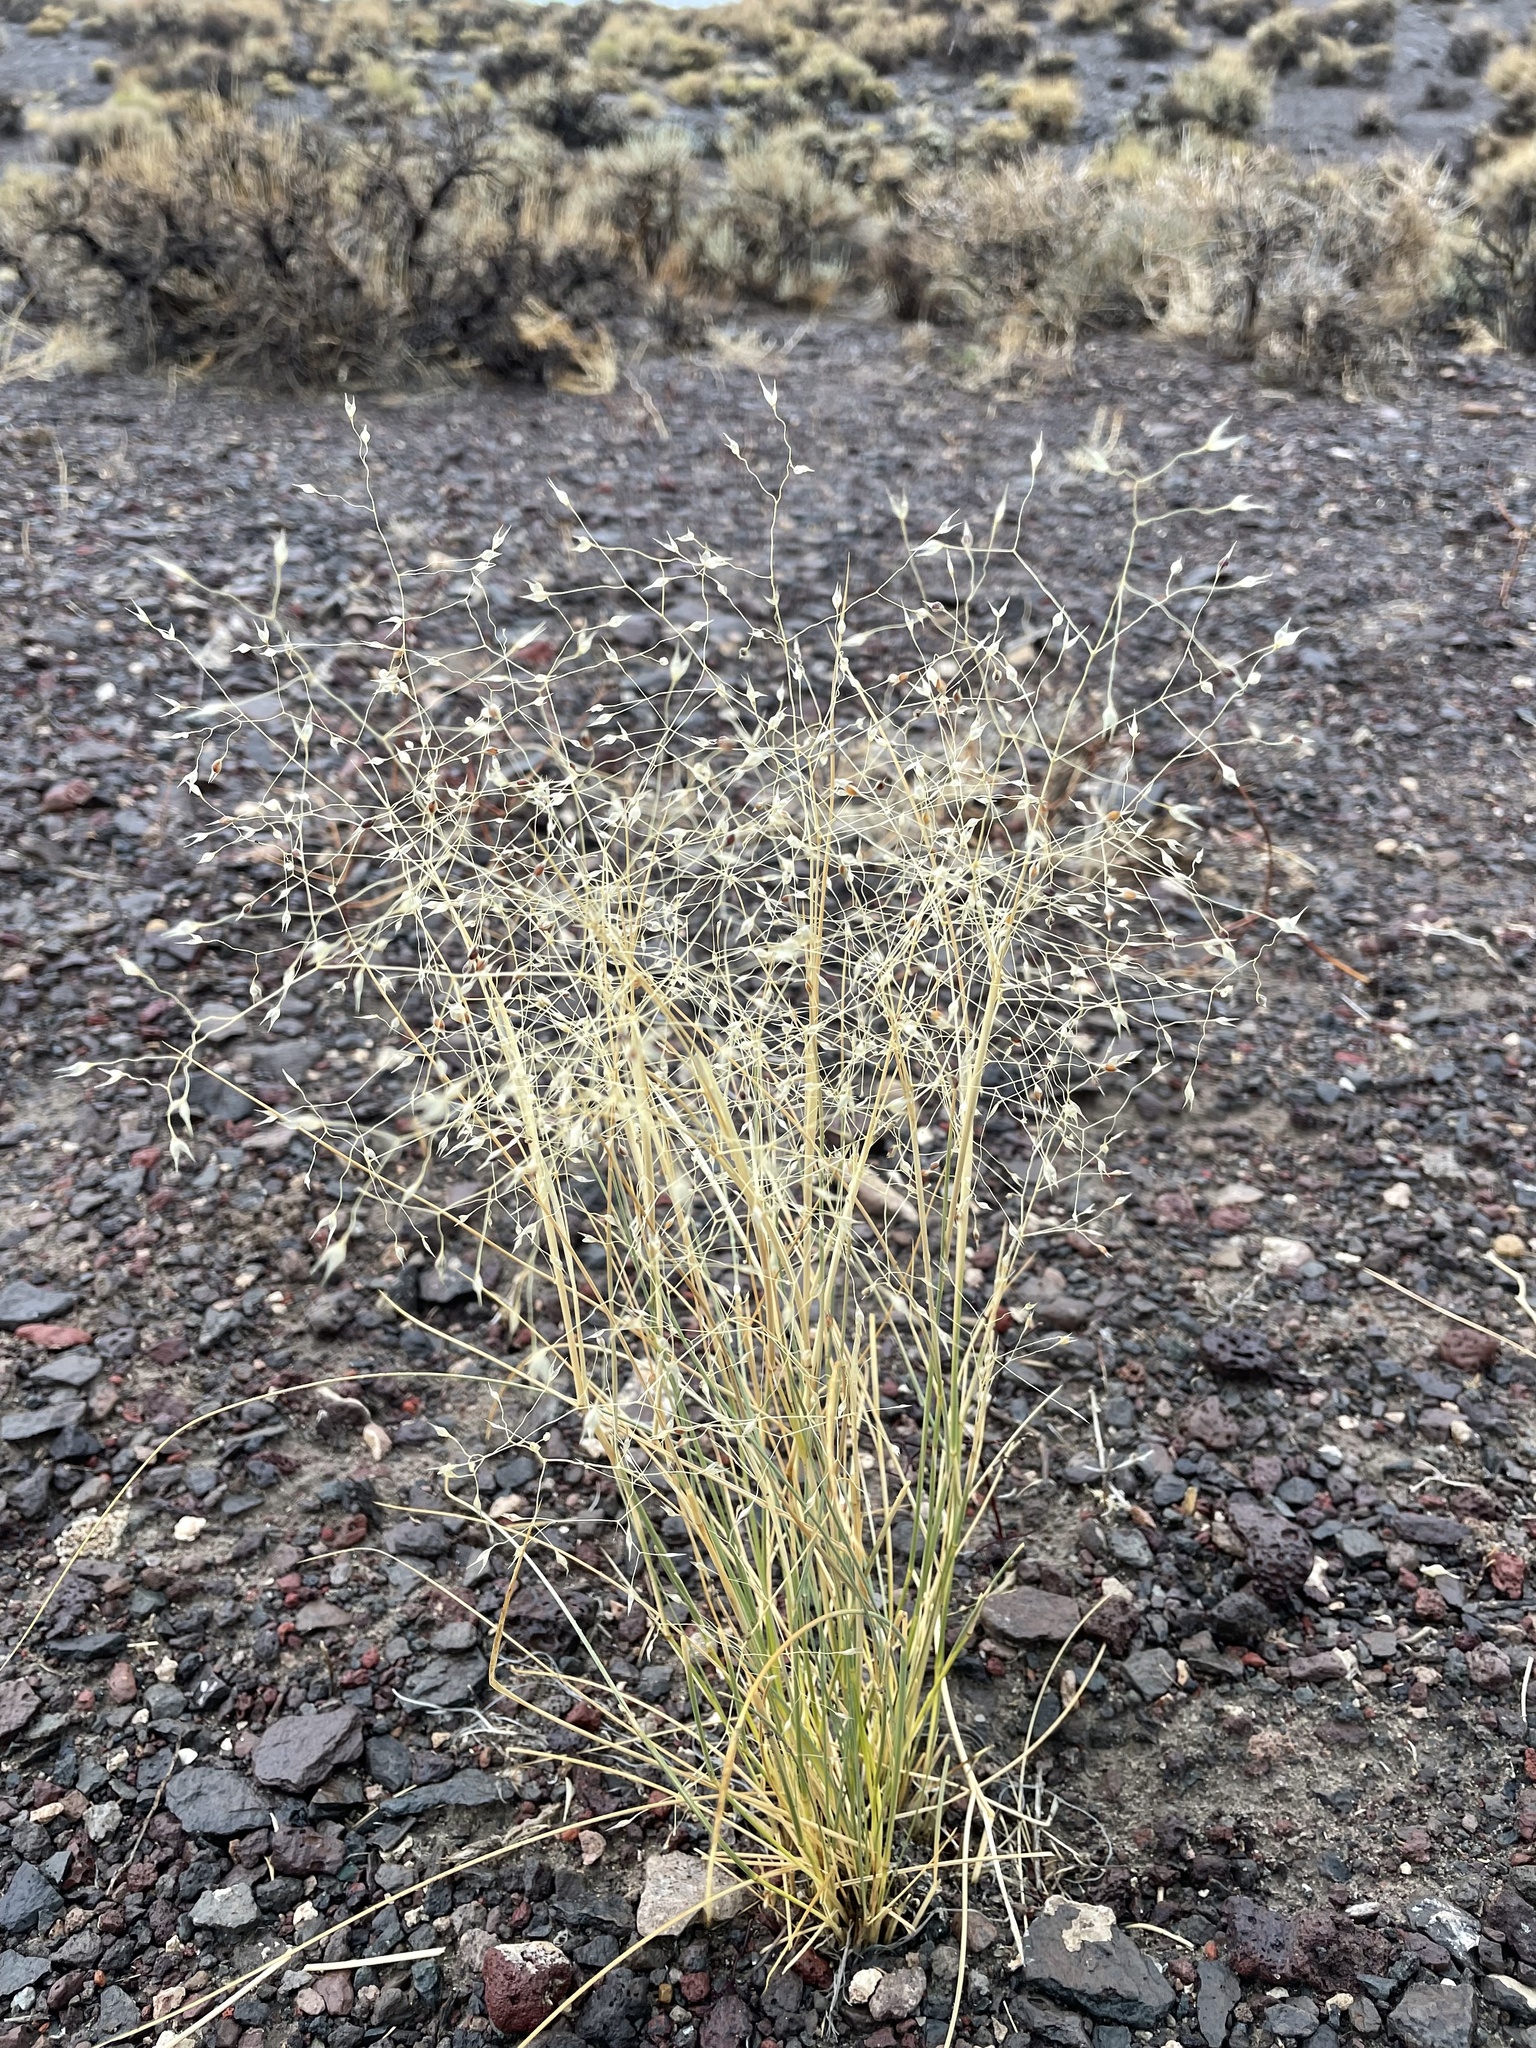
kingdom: Plantae
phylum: Tracheophyta
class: Liliopsida
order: Poales
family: Poaceae
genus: Eriocoma
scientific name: Eriocoma hymenoides
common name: Indian mountain ricegrass
